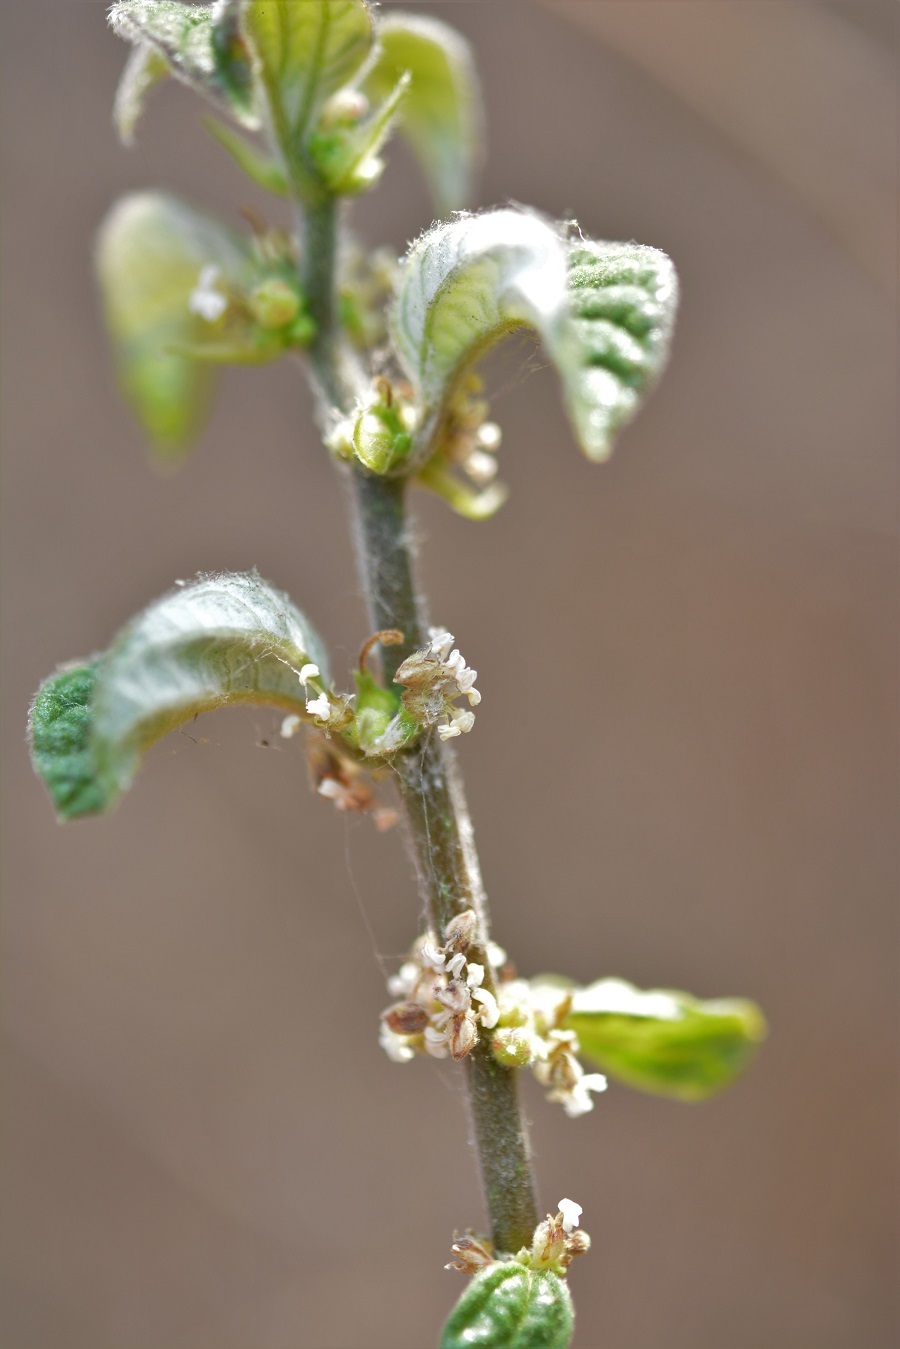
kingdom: Plantae
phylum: Tracheophyta
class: Magnoliopsida
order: Rosales
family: Urticaceae
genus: Pouzolzia
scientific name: Pouzolzia occidentalis
